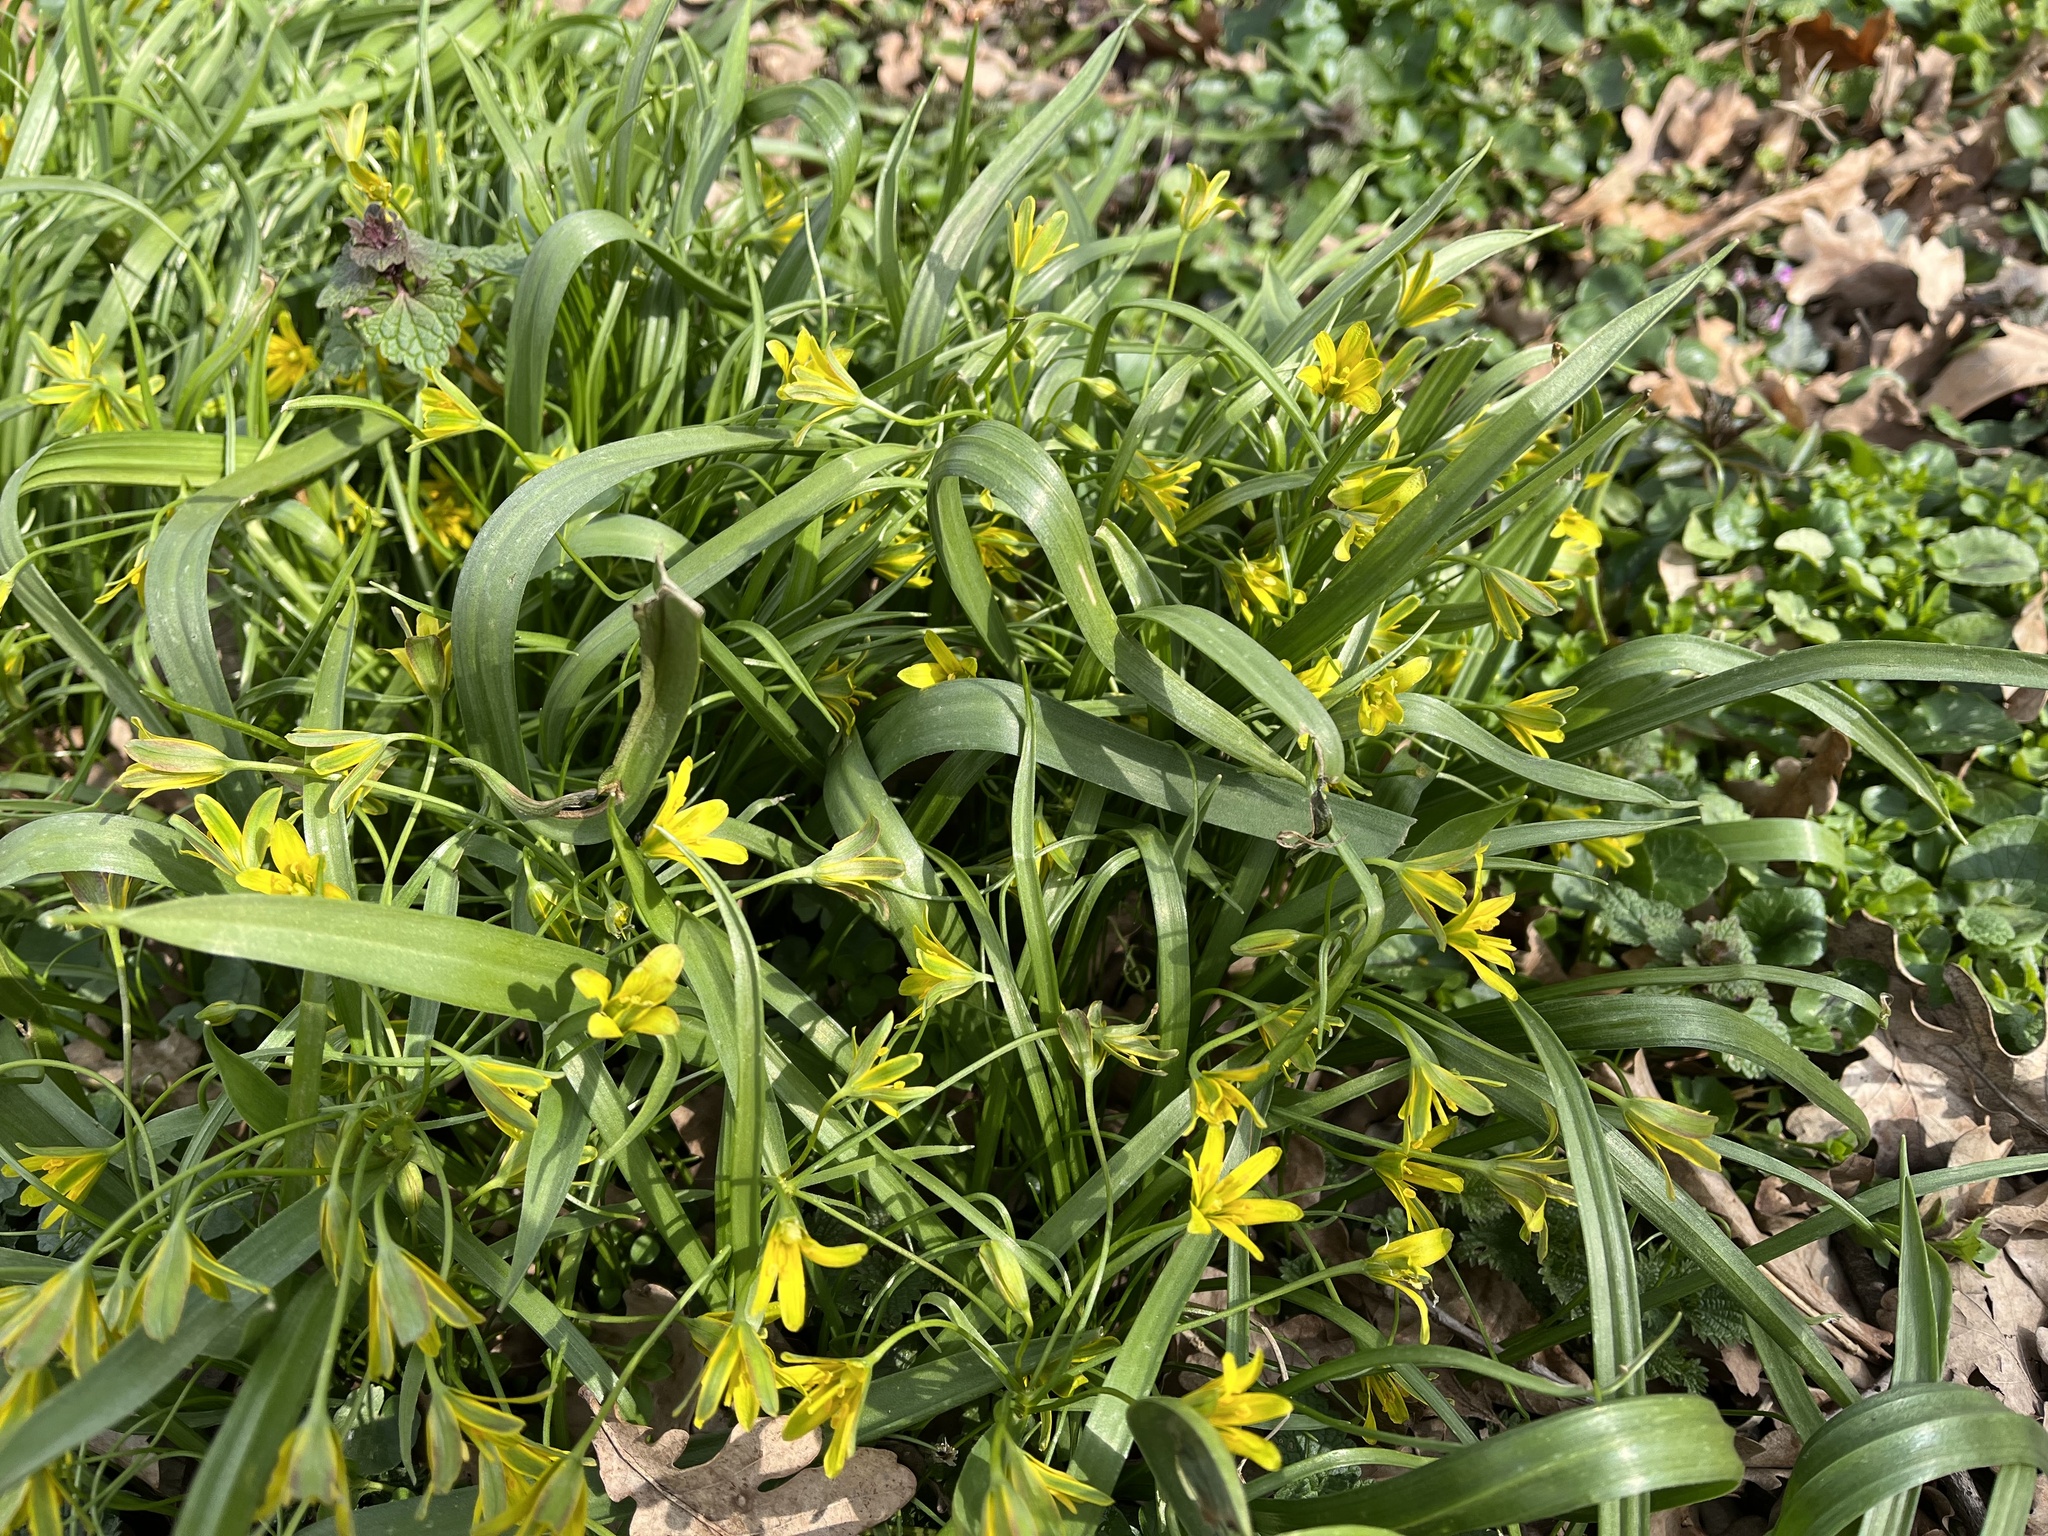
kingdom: Plantae
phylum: Tracheophyta
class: Liliopsida
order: Liliales
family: Liliaceae
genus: Gagea
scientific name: Gagea lutea
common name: Yellow star-of-bethlehem
